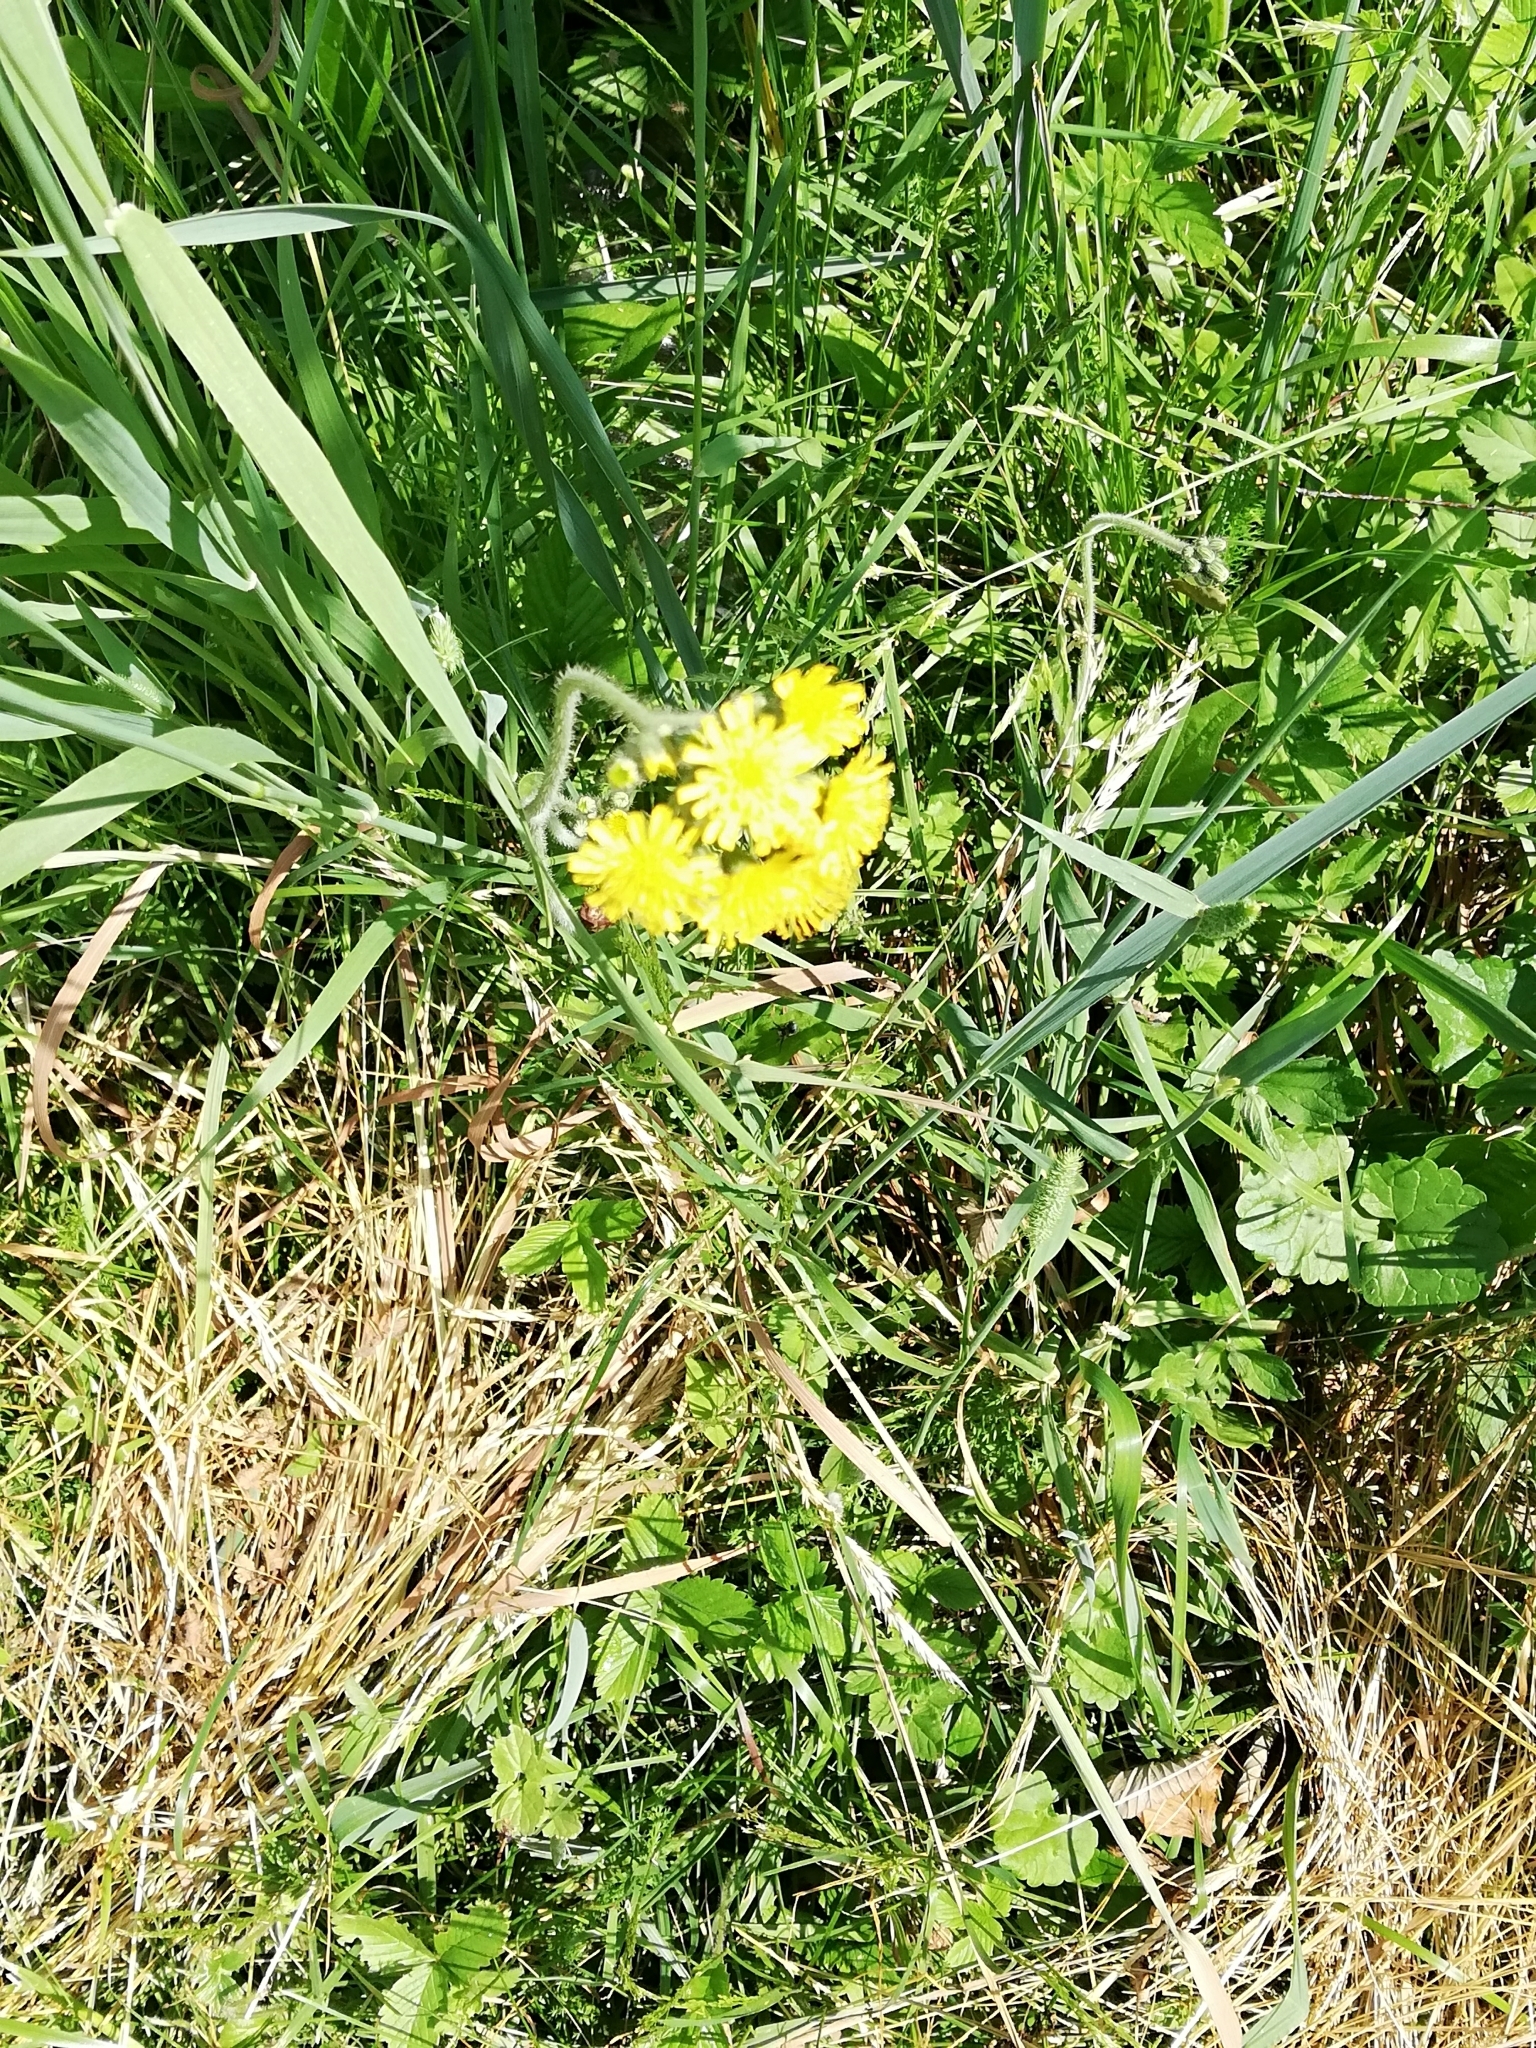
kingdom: Plantae
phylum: Tracheophyta
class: Magnoliopsida
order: Asterales
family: Asteraceae
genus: Pilosella
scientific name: Pilosella
